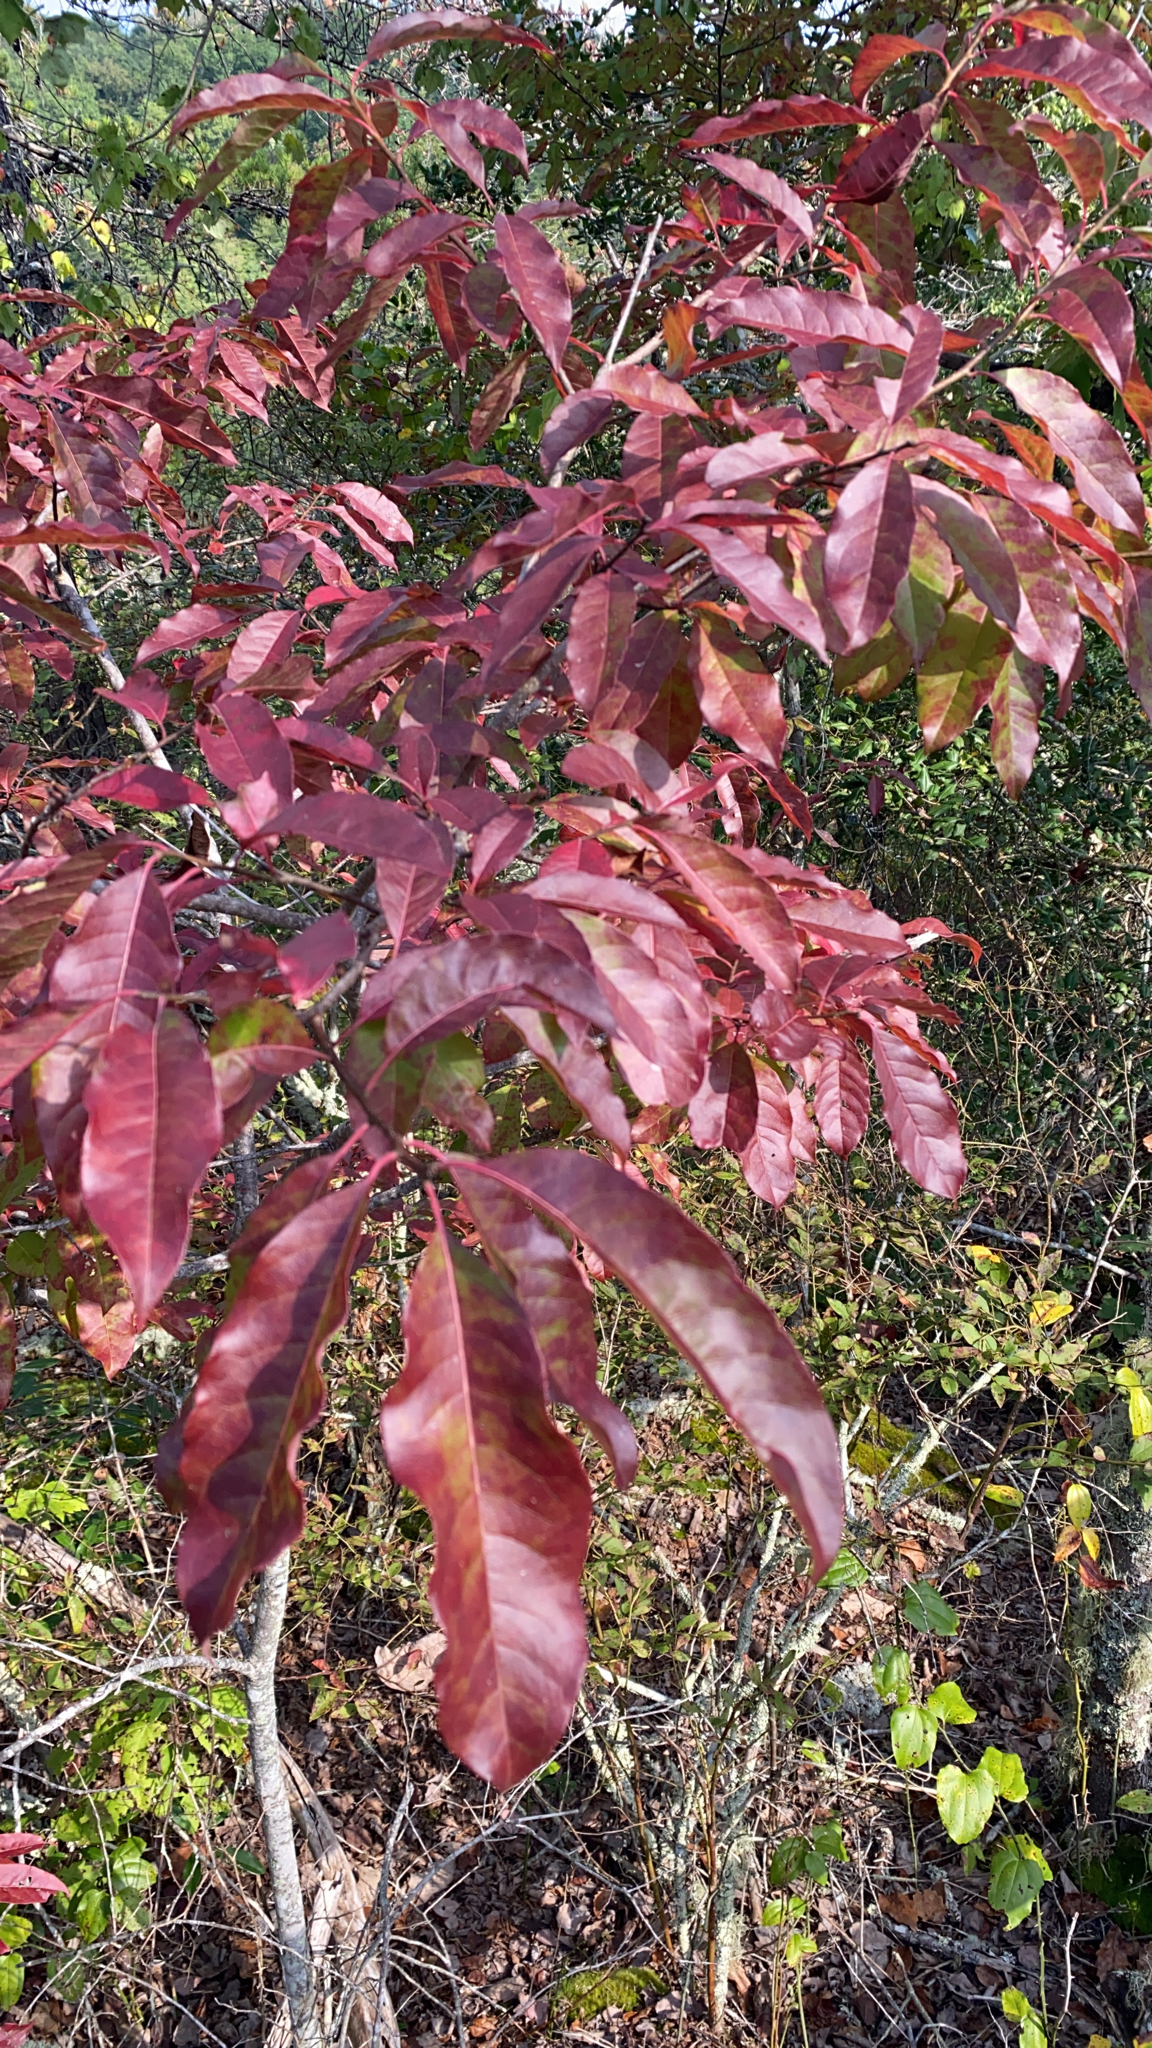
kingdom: Plantae
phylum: Tracheophyta
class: Magnoliopsida
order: Ericales
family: Ericaceae
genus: Oxydendrum
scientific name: Oxydendrum arboreum
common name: Sourwood
